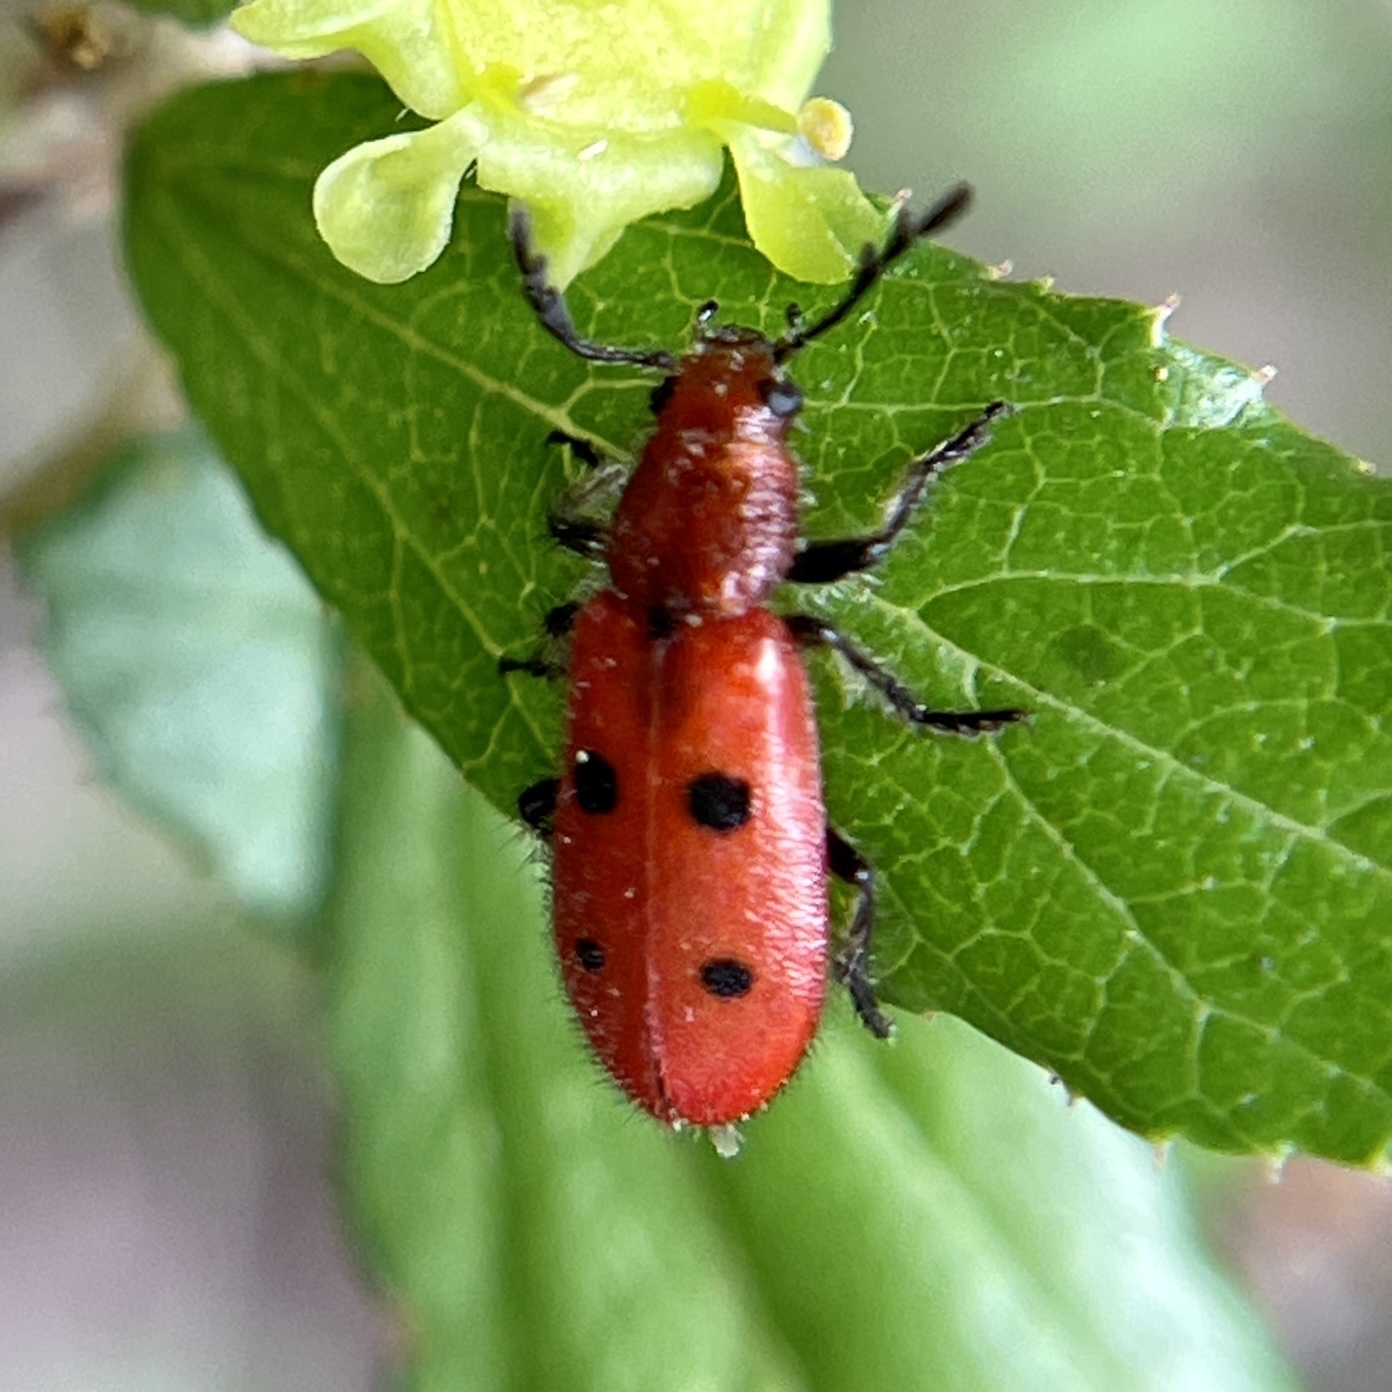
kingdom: Animalia
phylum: Arthropoda
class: Insecta
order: Coleoptera
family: Cleridae
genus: Pelonides
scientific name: Pelonides
